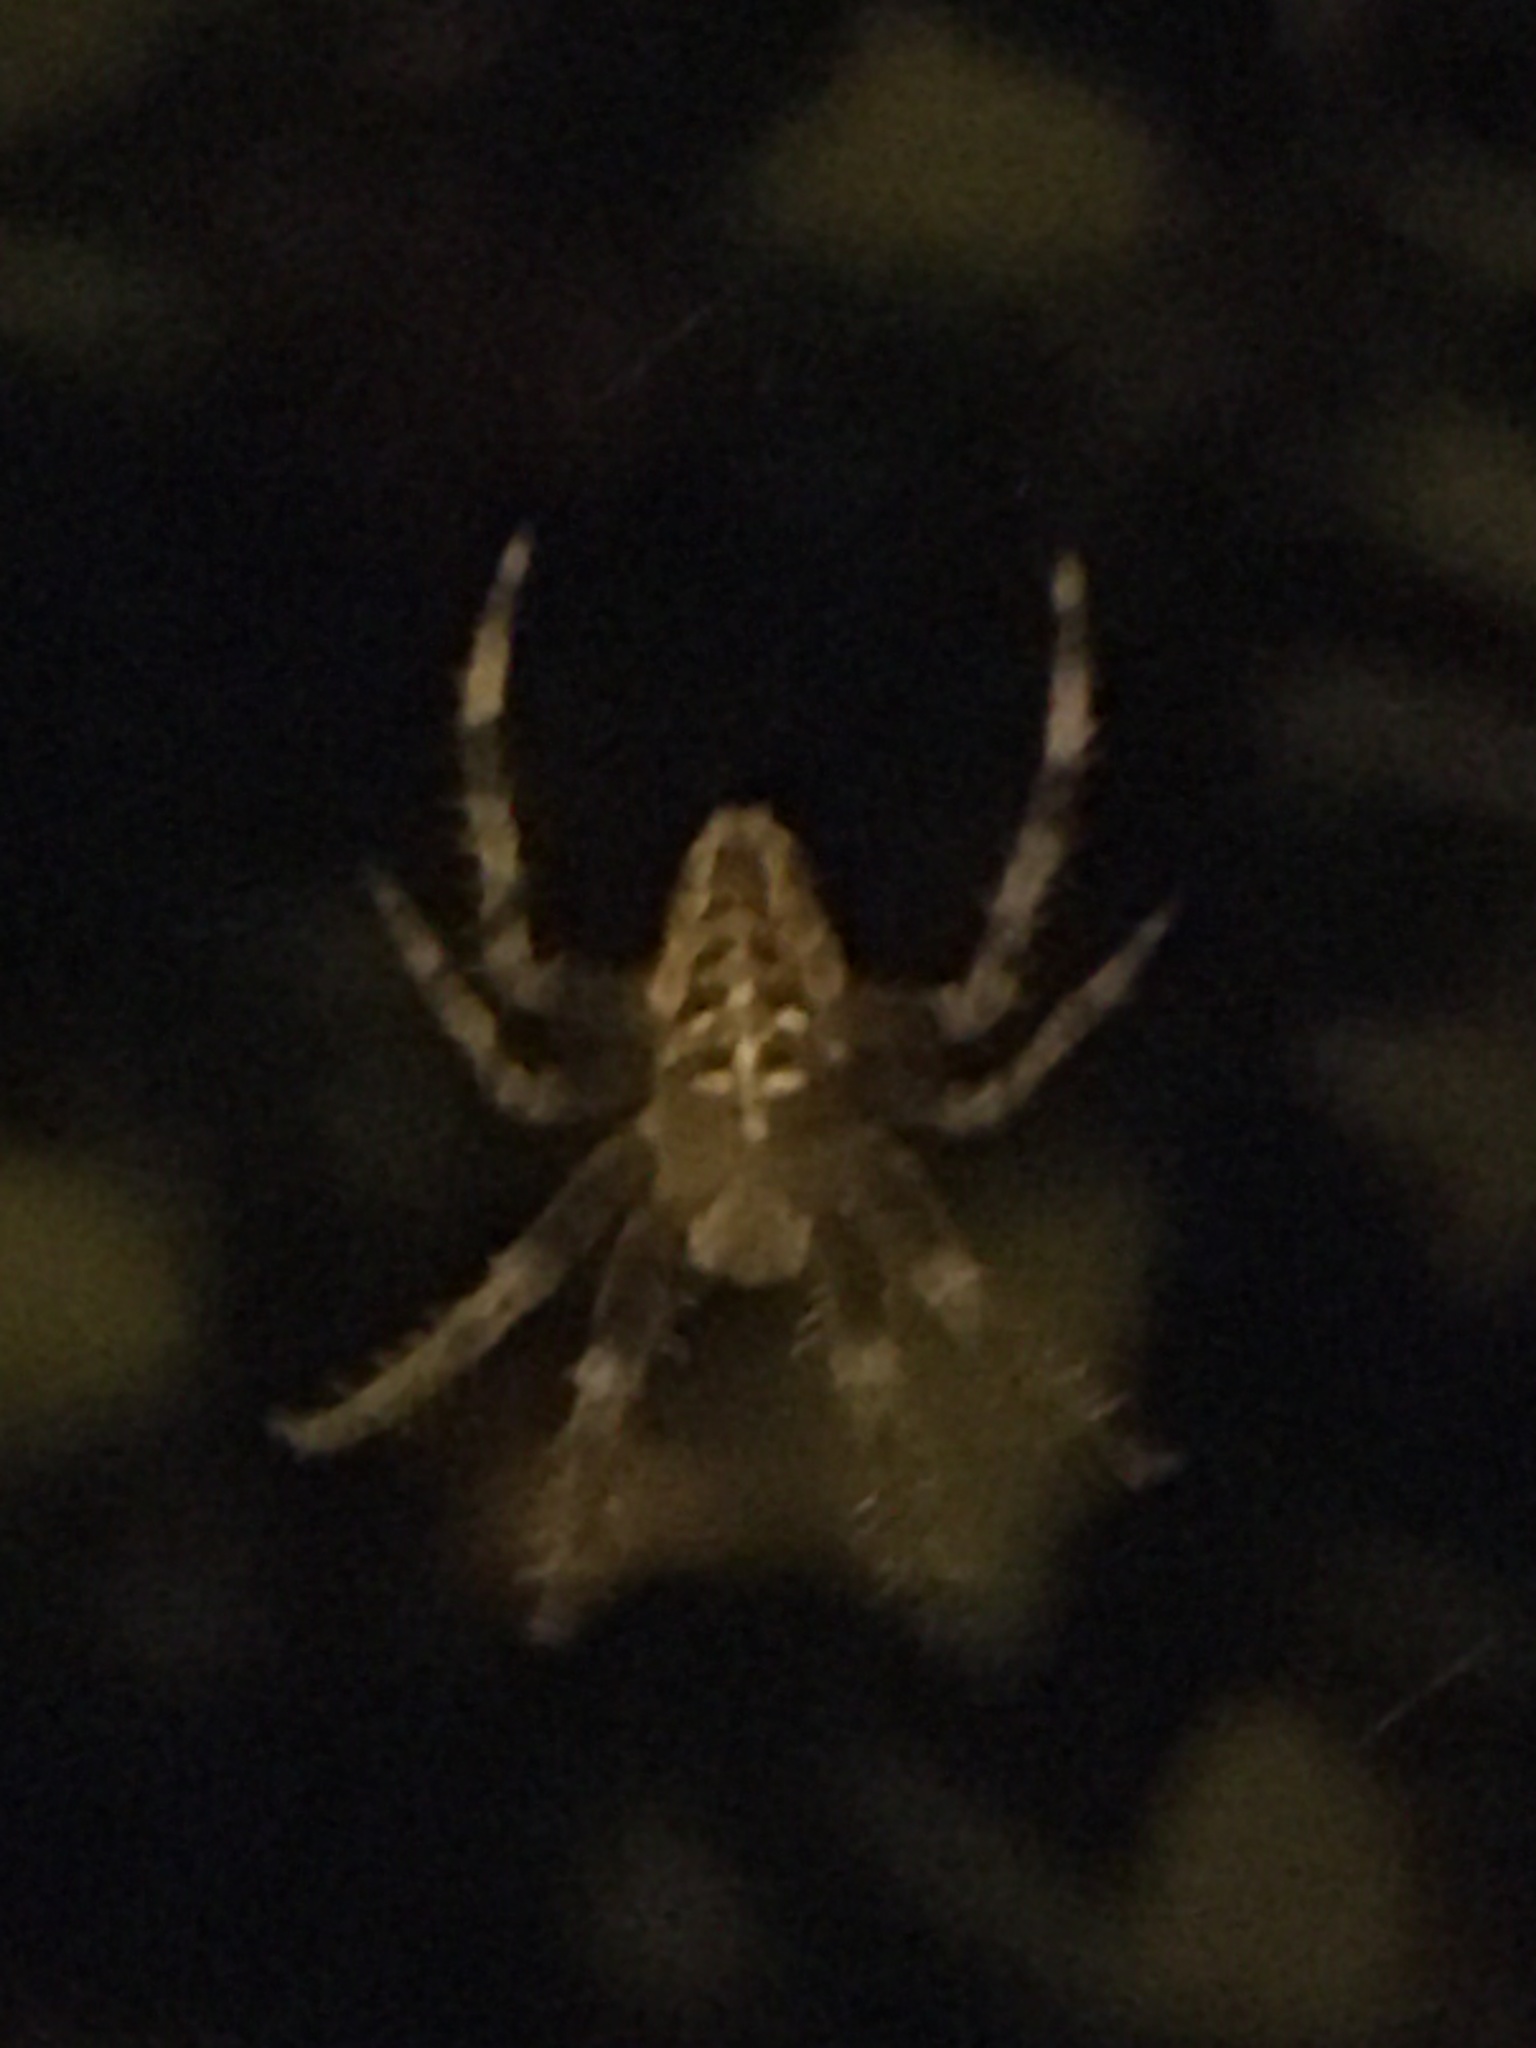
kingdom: Animalia
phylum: Arthropoda
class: Arachnida
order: Araneae
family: Araneidae
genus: Araneus
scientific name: Araneus diadematus
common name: Cross orbweaver
